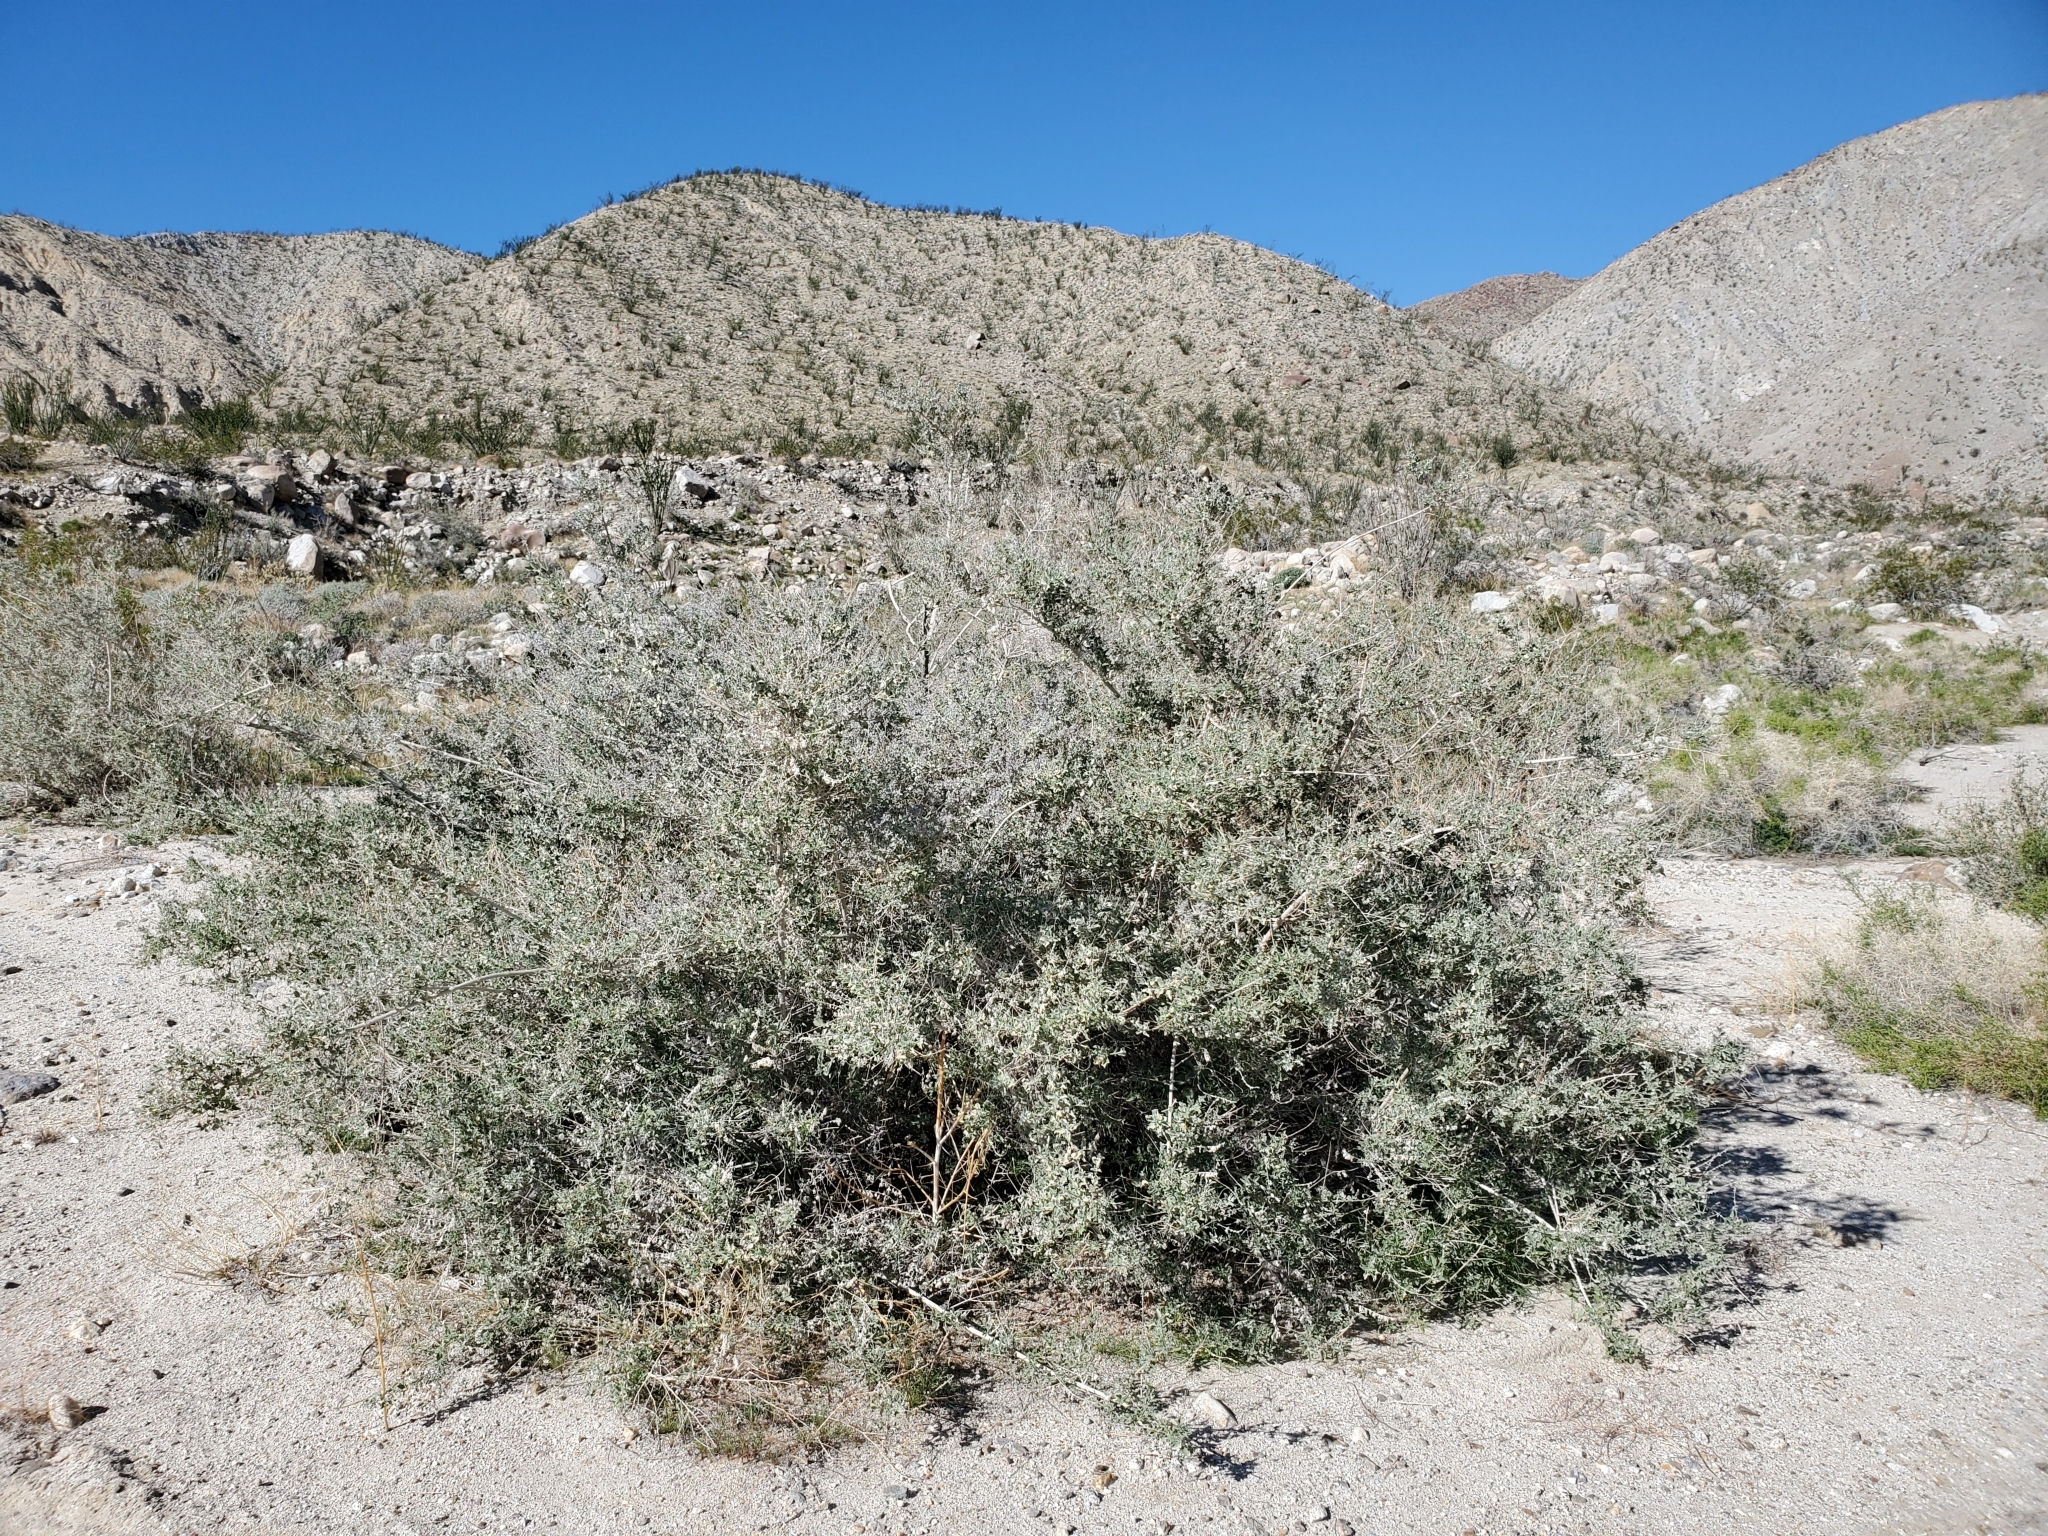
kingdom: Plantae
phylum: Tracheophyta
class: Magnoliopsida
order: Lamiales
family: Lamiaceae
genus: Condea
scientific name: Condea emoryi
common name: Chia
